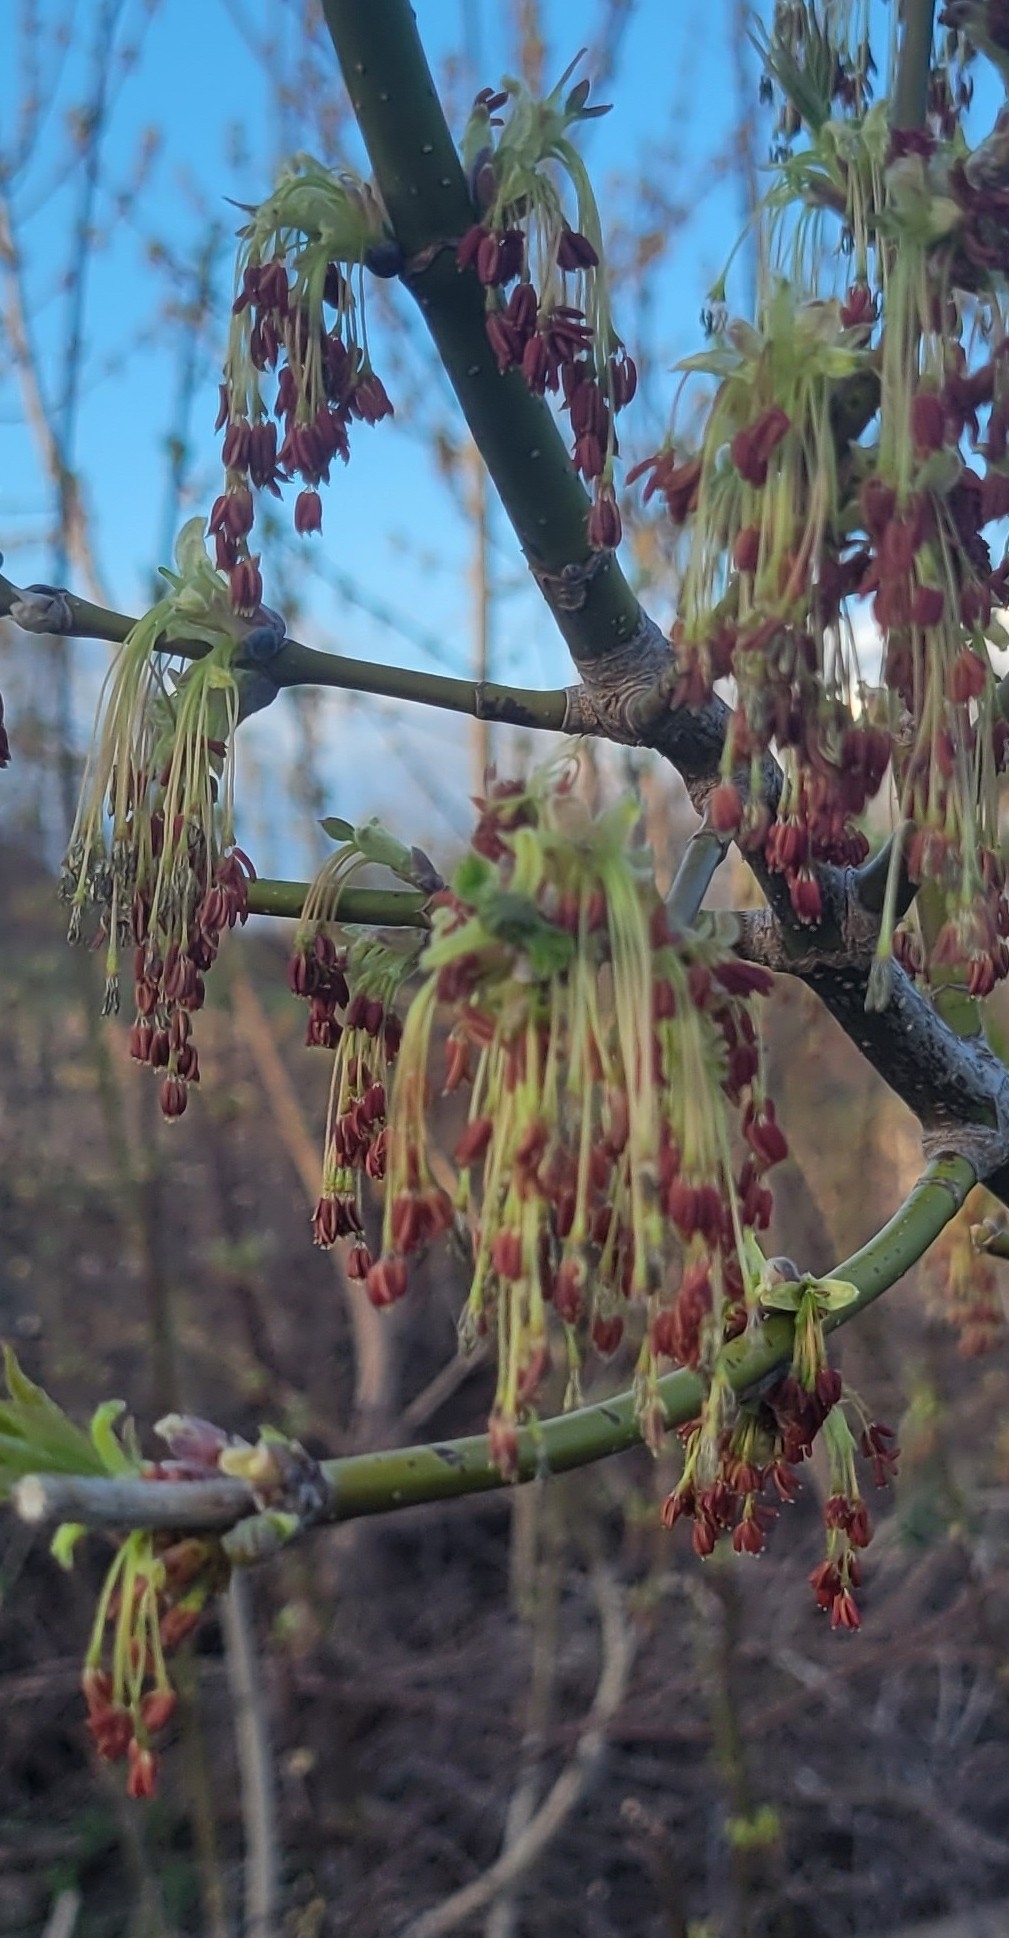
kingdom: Plantae
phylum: Tracheophyta
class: Magnoliopsida
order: Sapindales
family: Sapindaceae
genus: Acer
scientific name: Acer negundo
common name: Ashleaf maple
